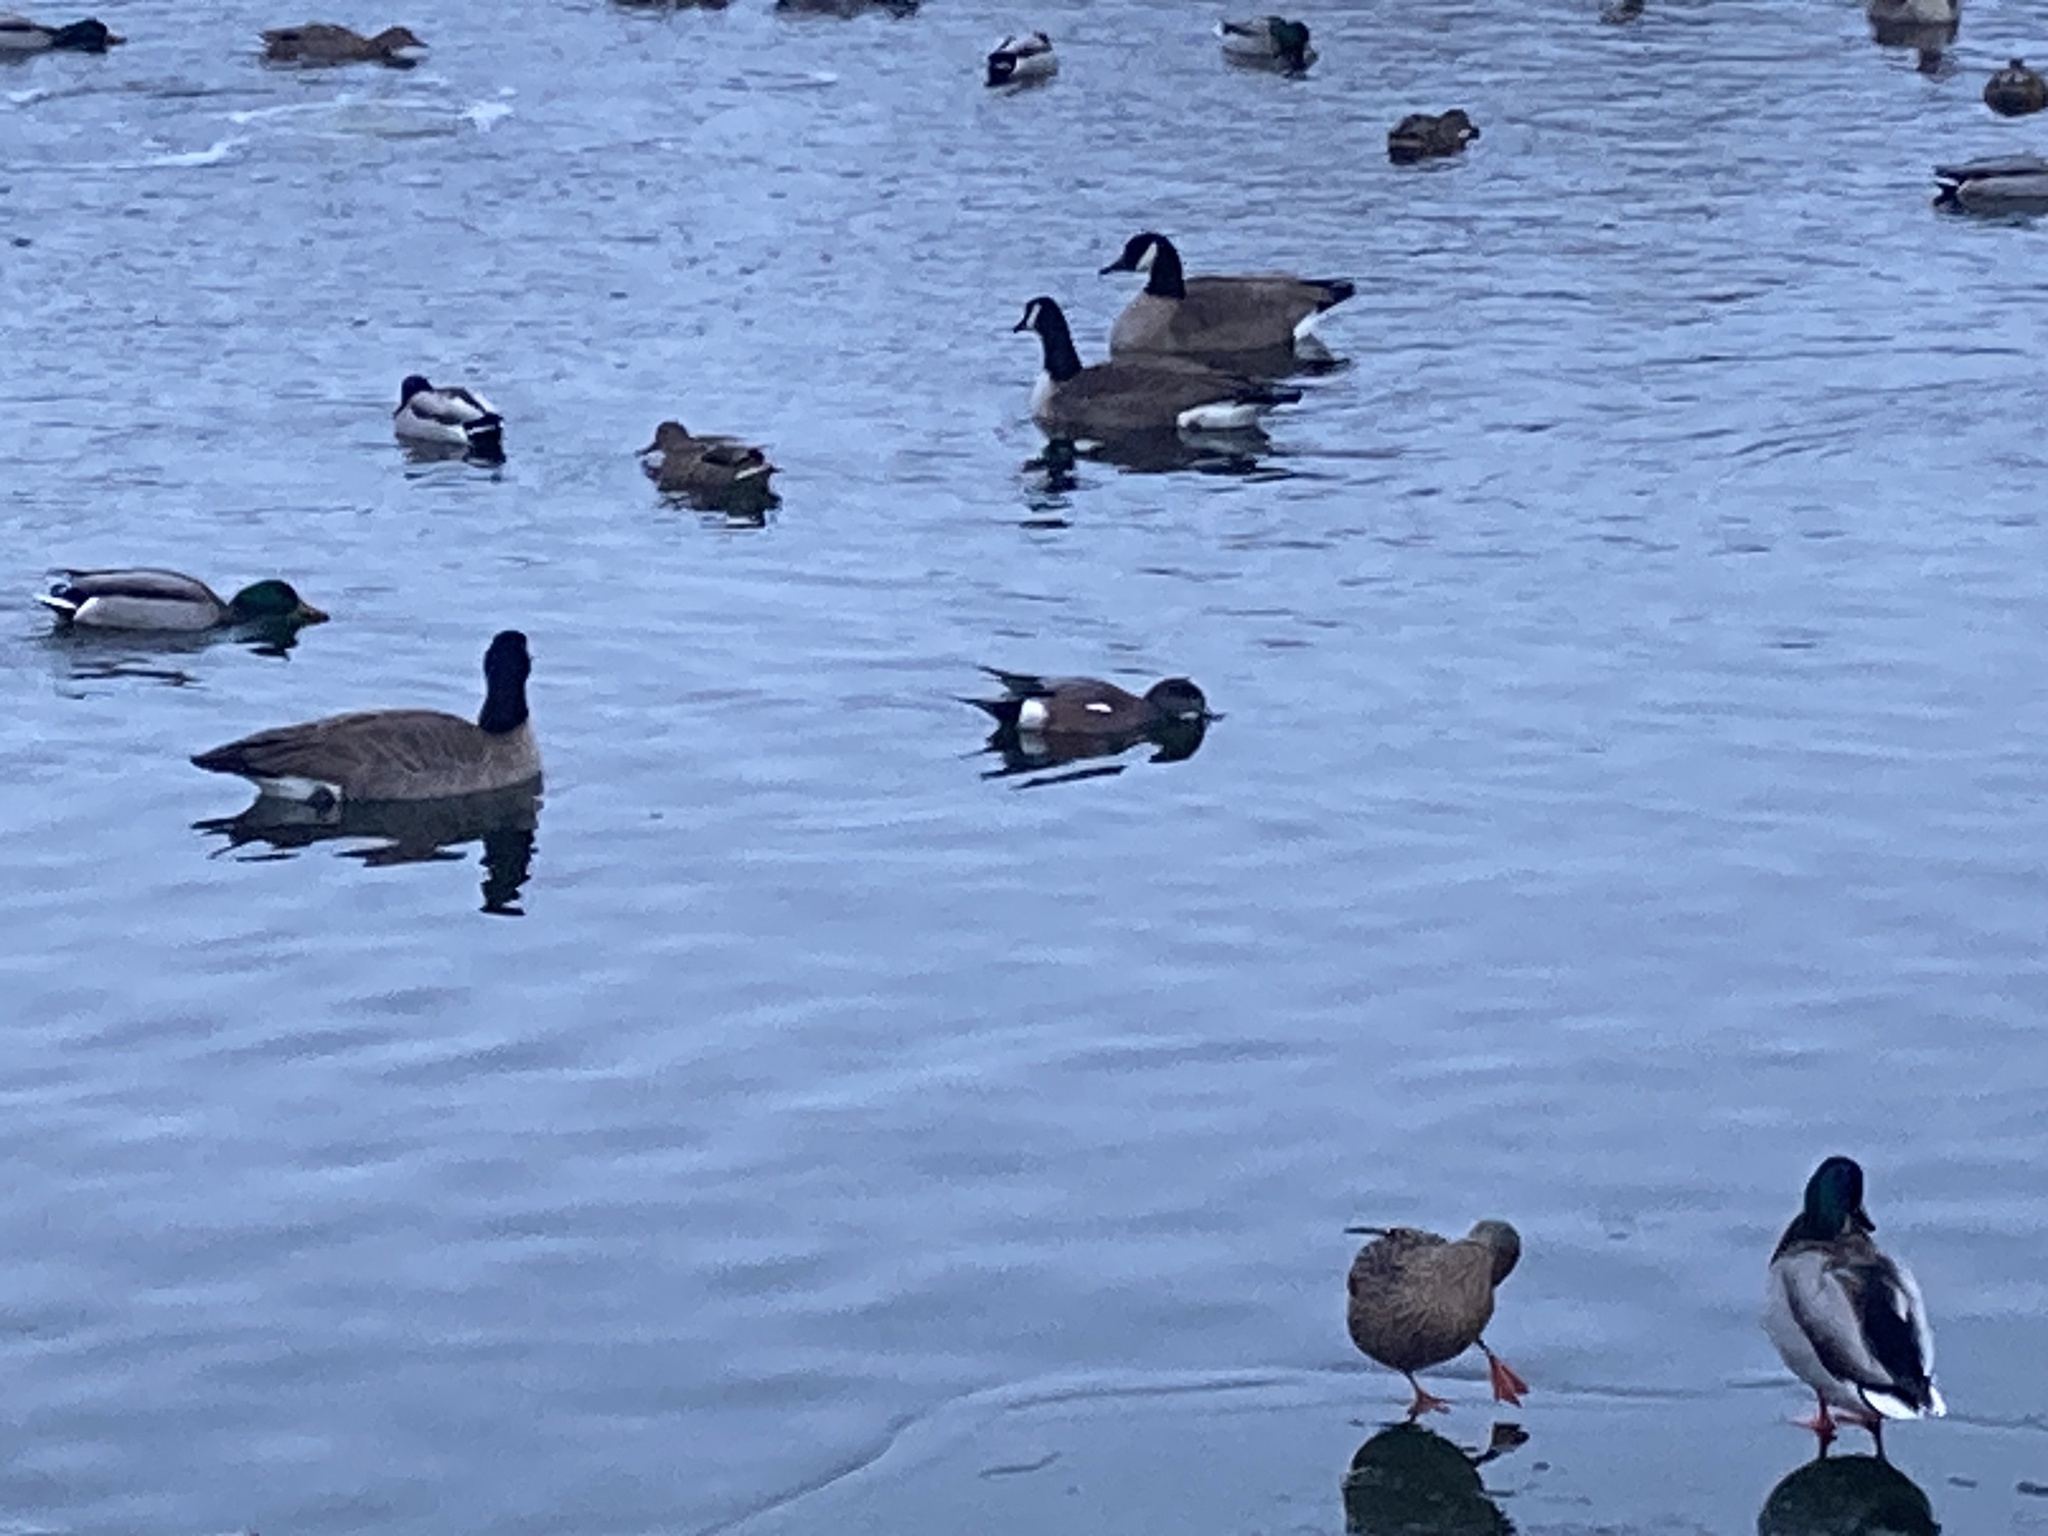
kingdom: Animalia
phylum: Chordata
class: Aves
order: Anseriformes
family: Anatidae
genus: Mareca
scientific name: Mareca americana
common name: American wigeon
